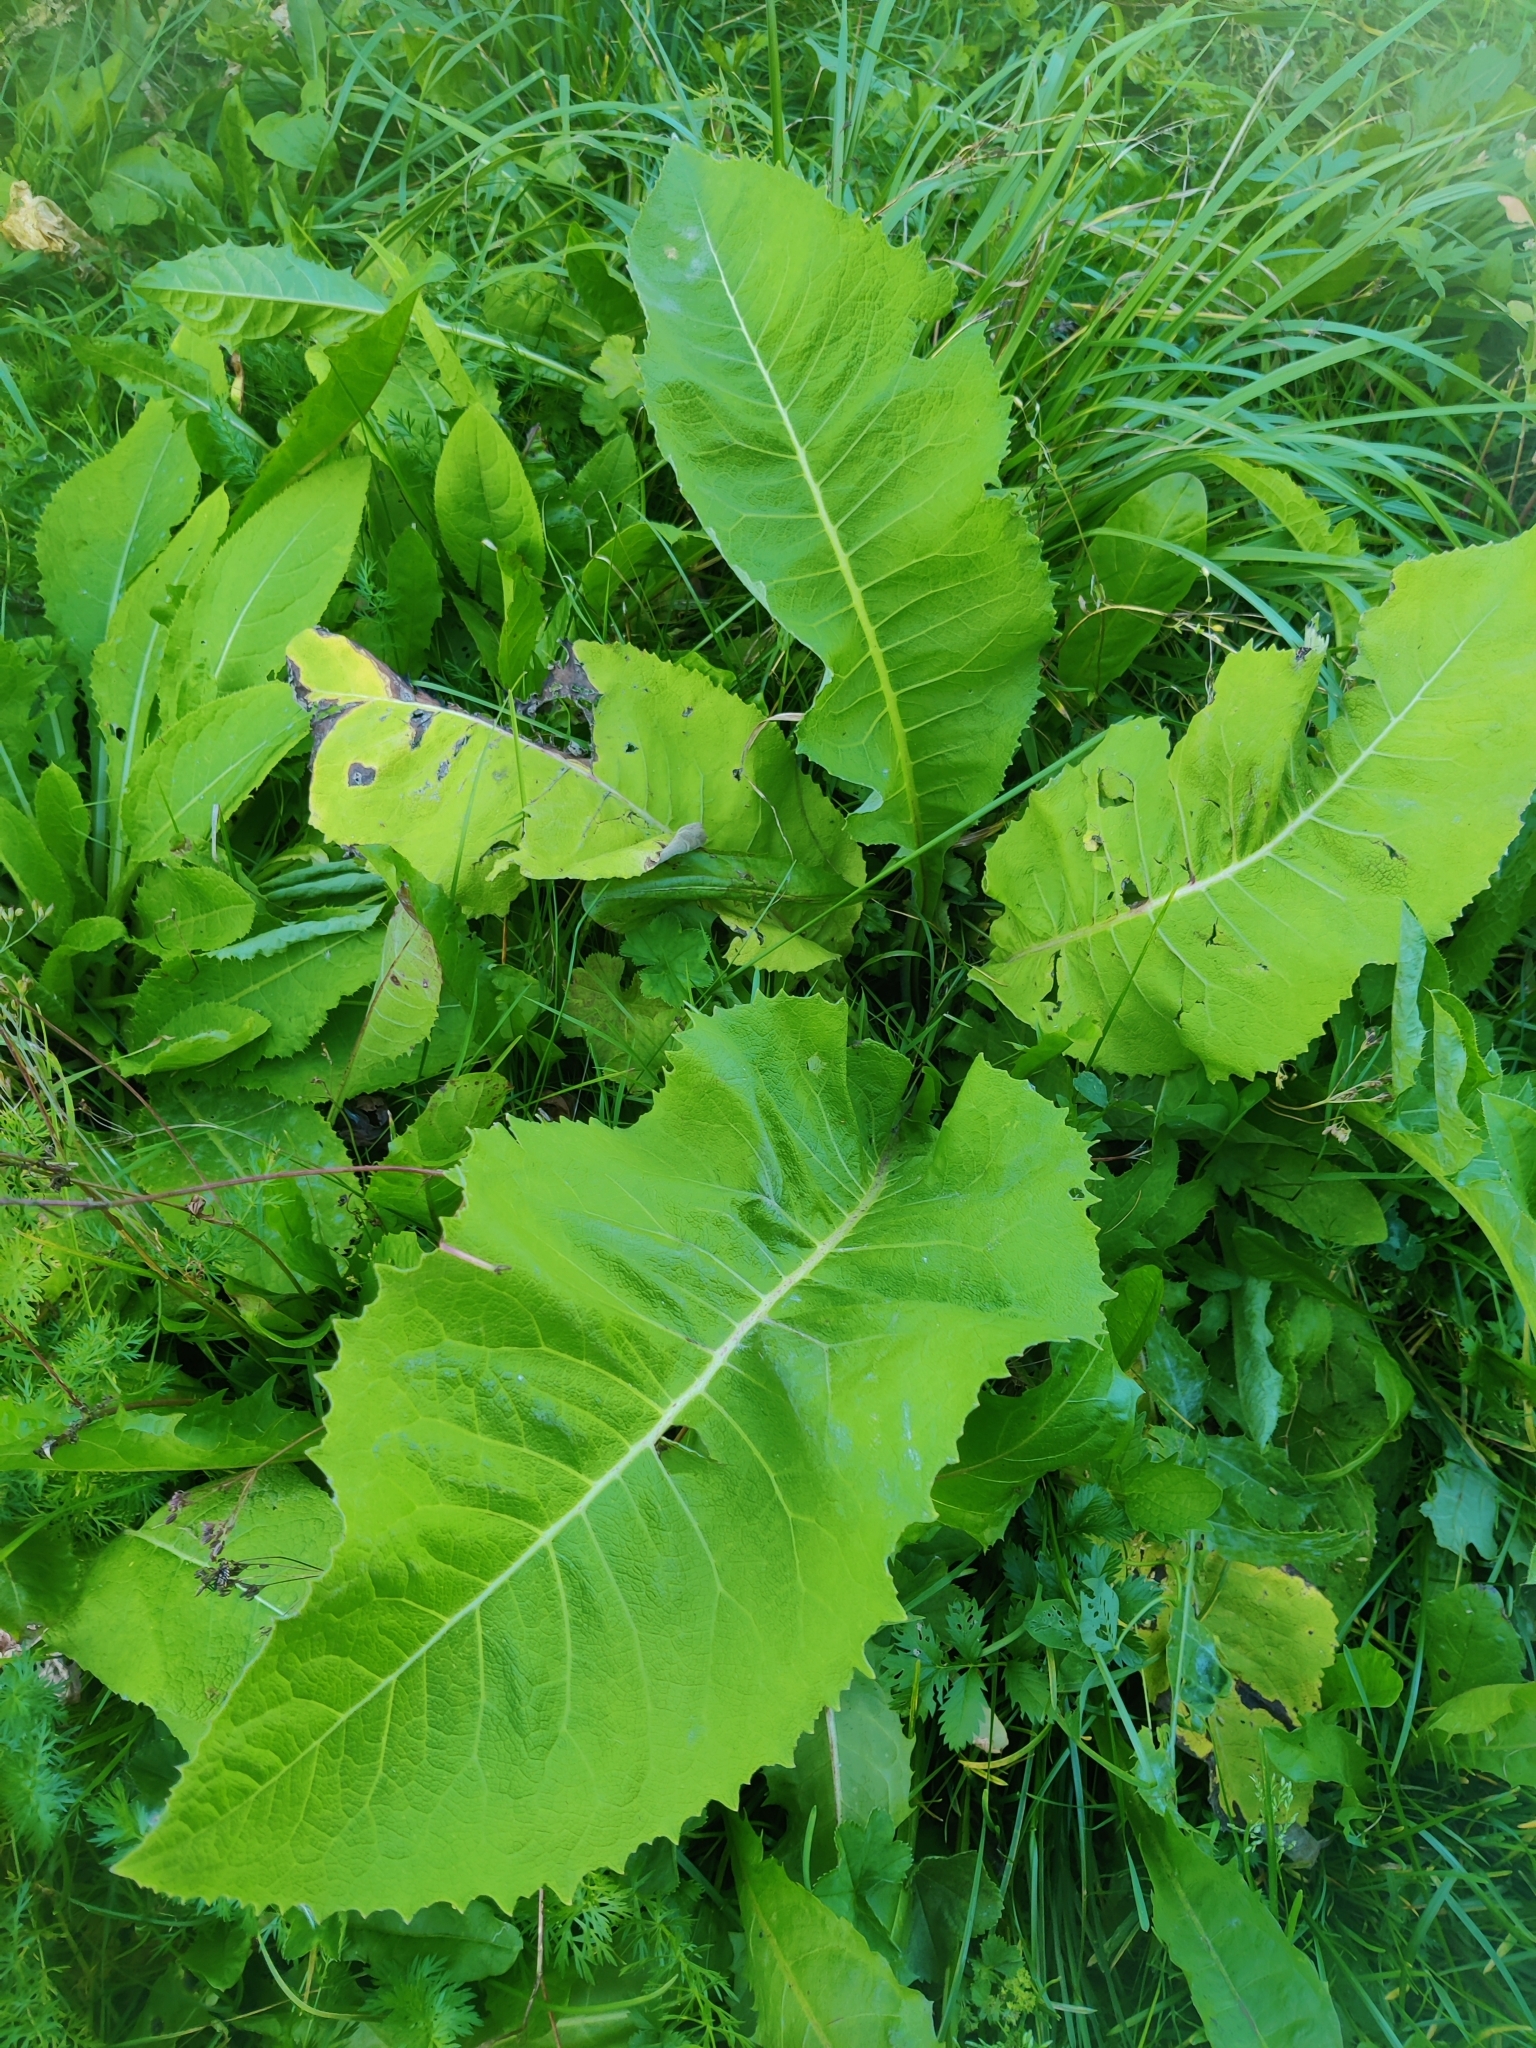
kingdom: Plantae
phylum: Tracheophyta
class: Magnoliopsida
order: Asterales
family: Asteraceae
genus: Inula
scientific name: Inula helenium
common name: Elecampane
